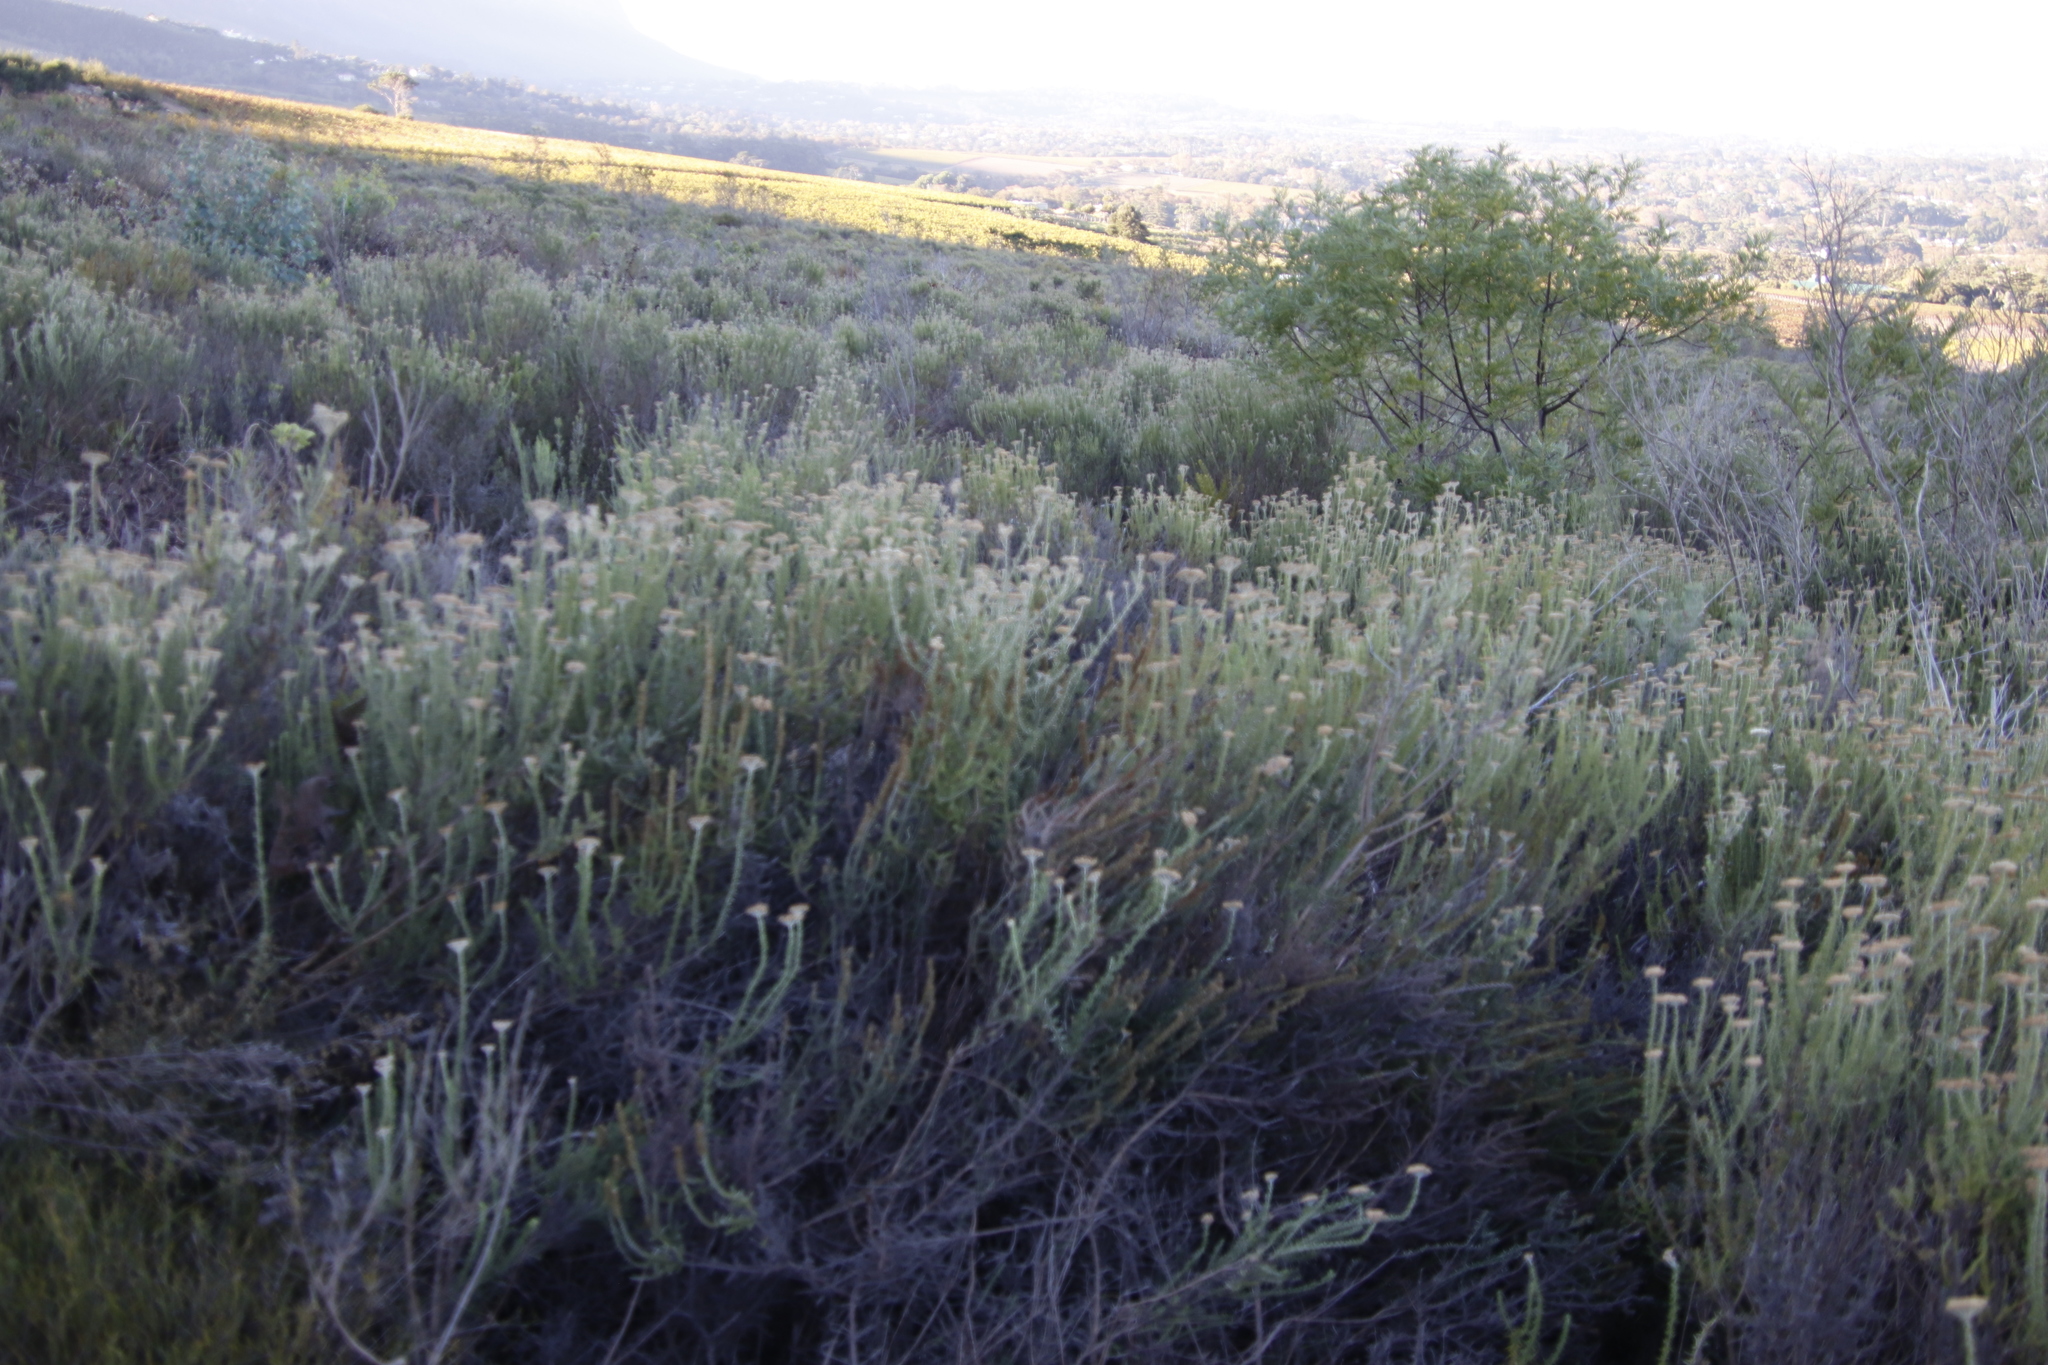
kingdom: Plantae
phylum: Tracheophyta
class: Magnoliopsida
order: Asterales
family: Asteraceae
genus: Metalasia
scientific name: Metalasia densa
